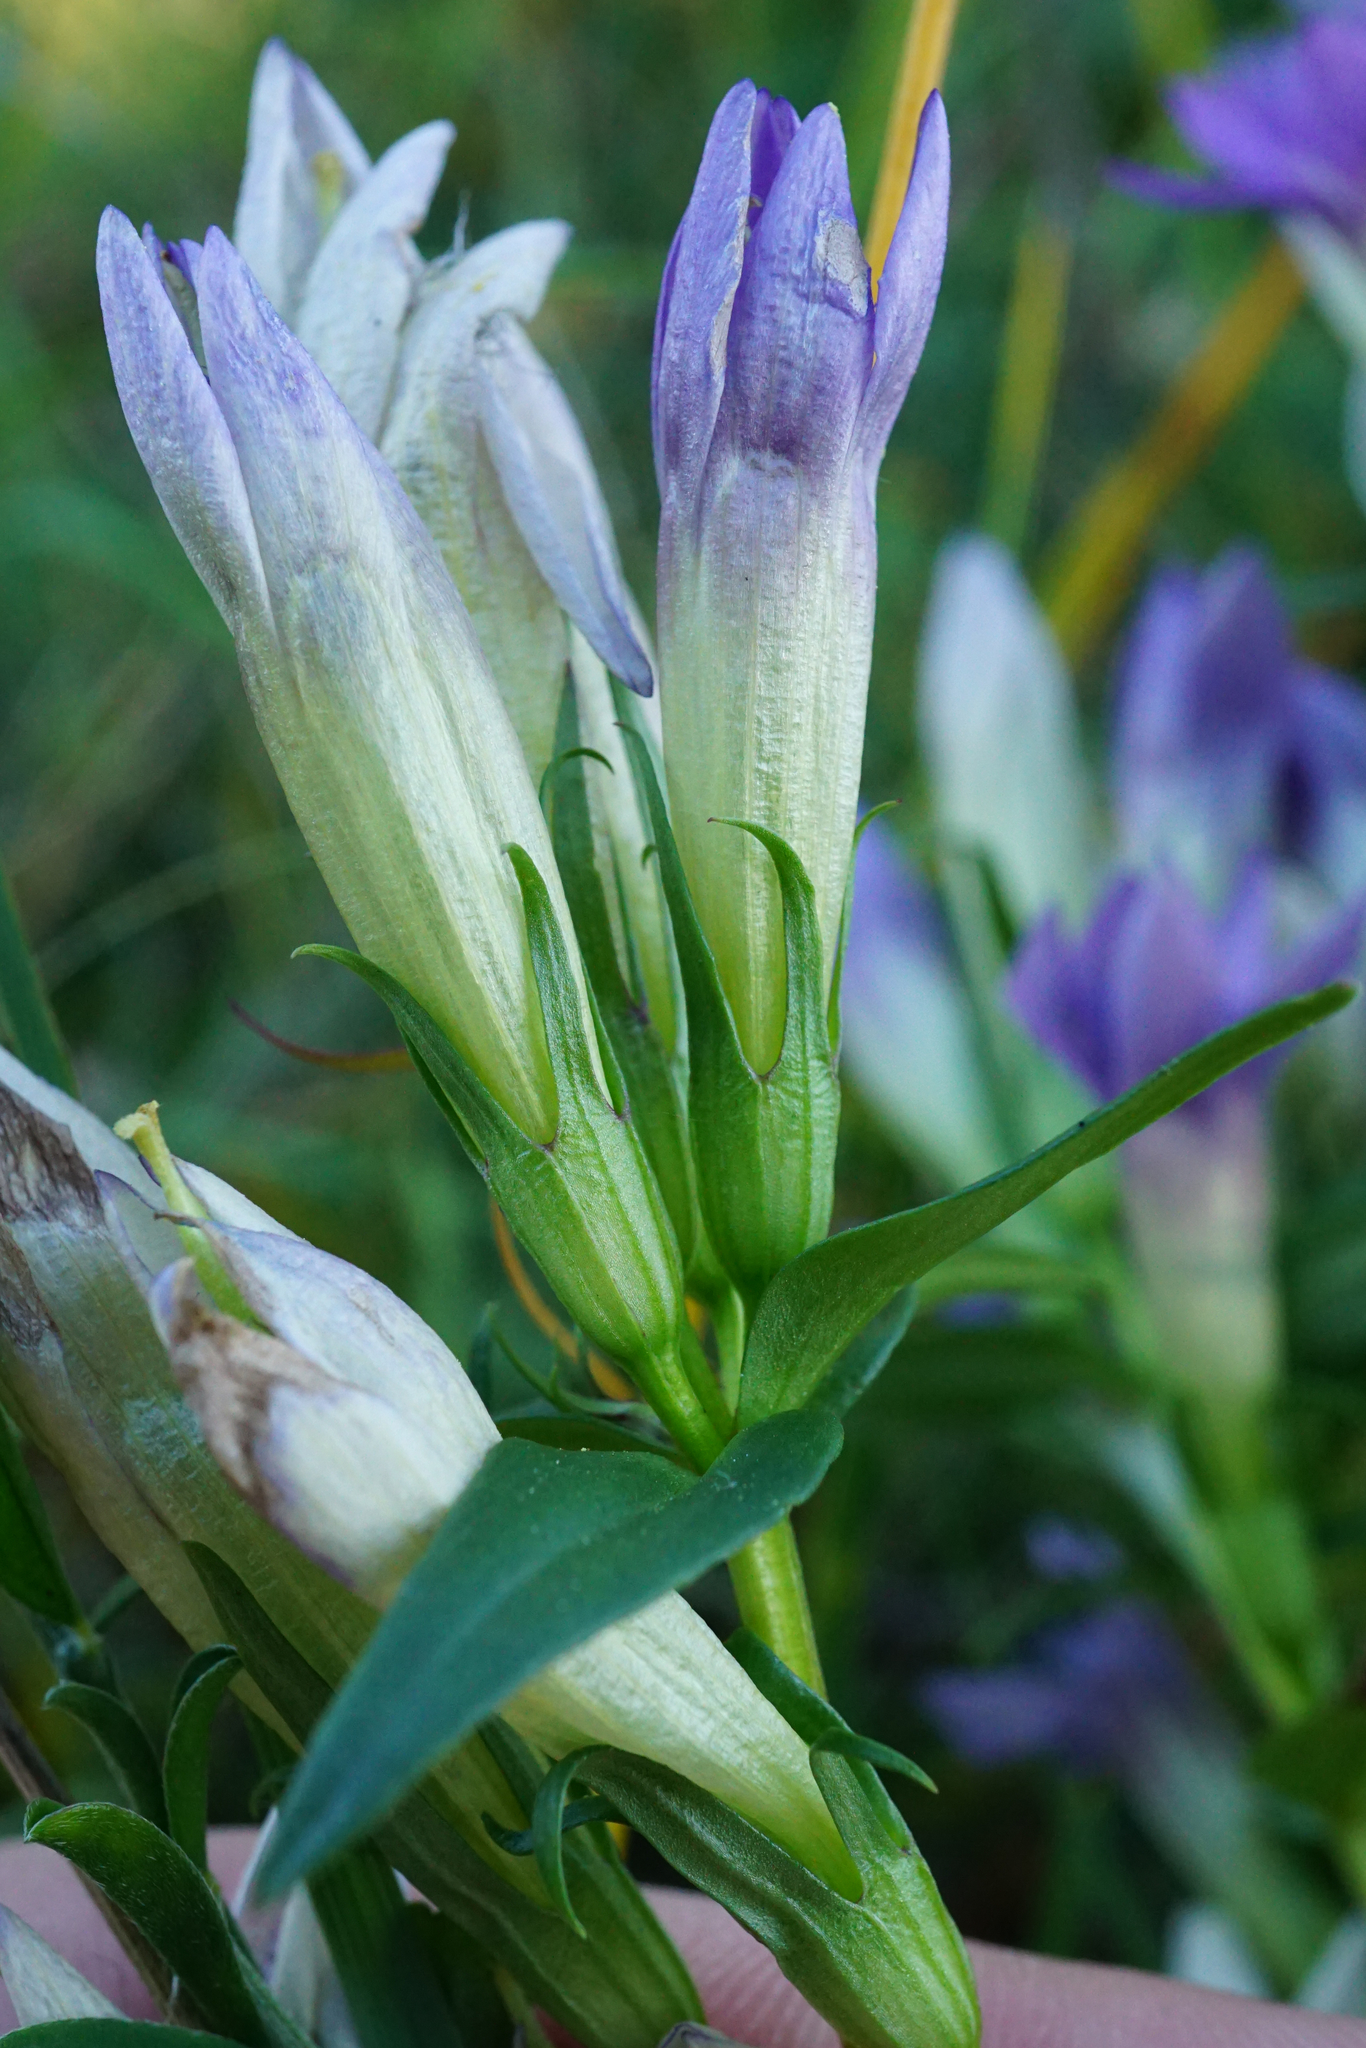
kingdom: Plantae
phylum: Tracheophyta
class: Magnoliopsida
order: Gentianales
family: Gentianaceae
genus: Gentianella
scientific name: Gentianella austriaca
